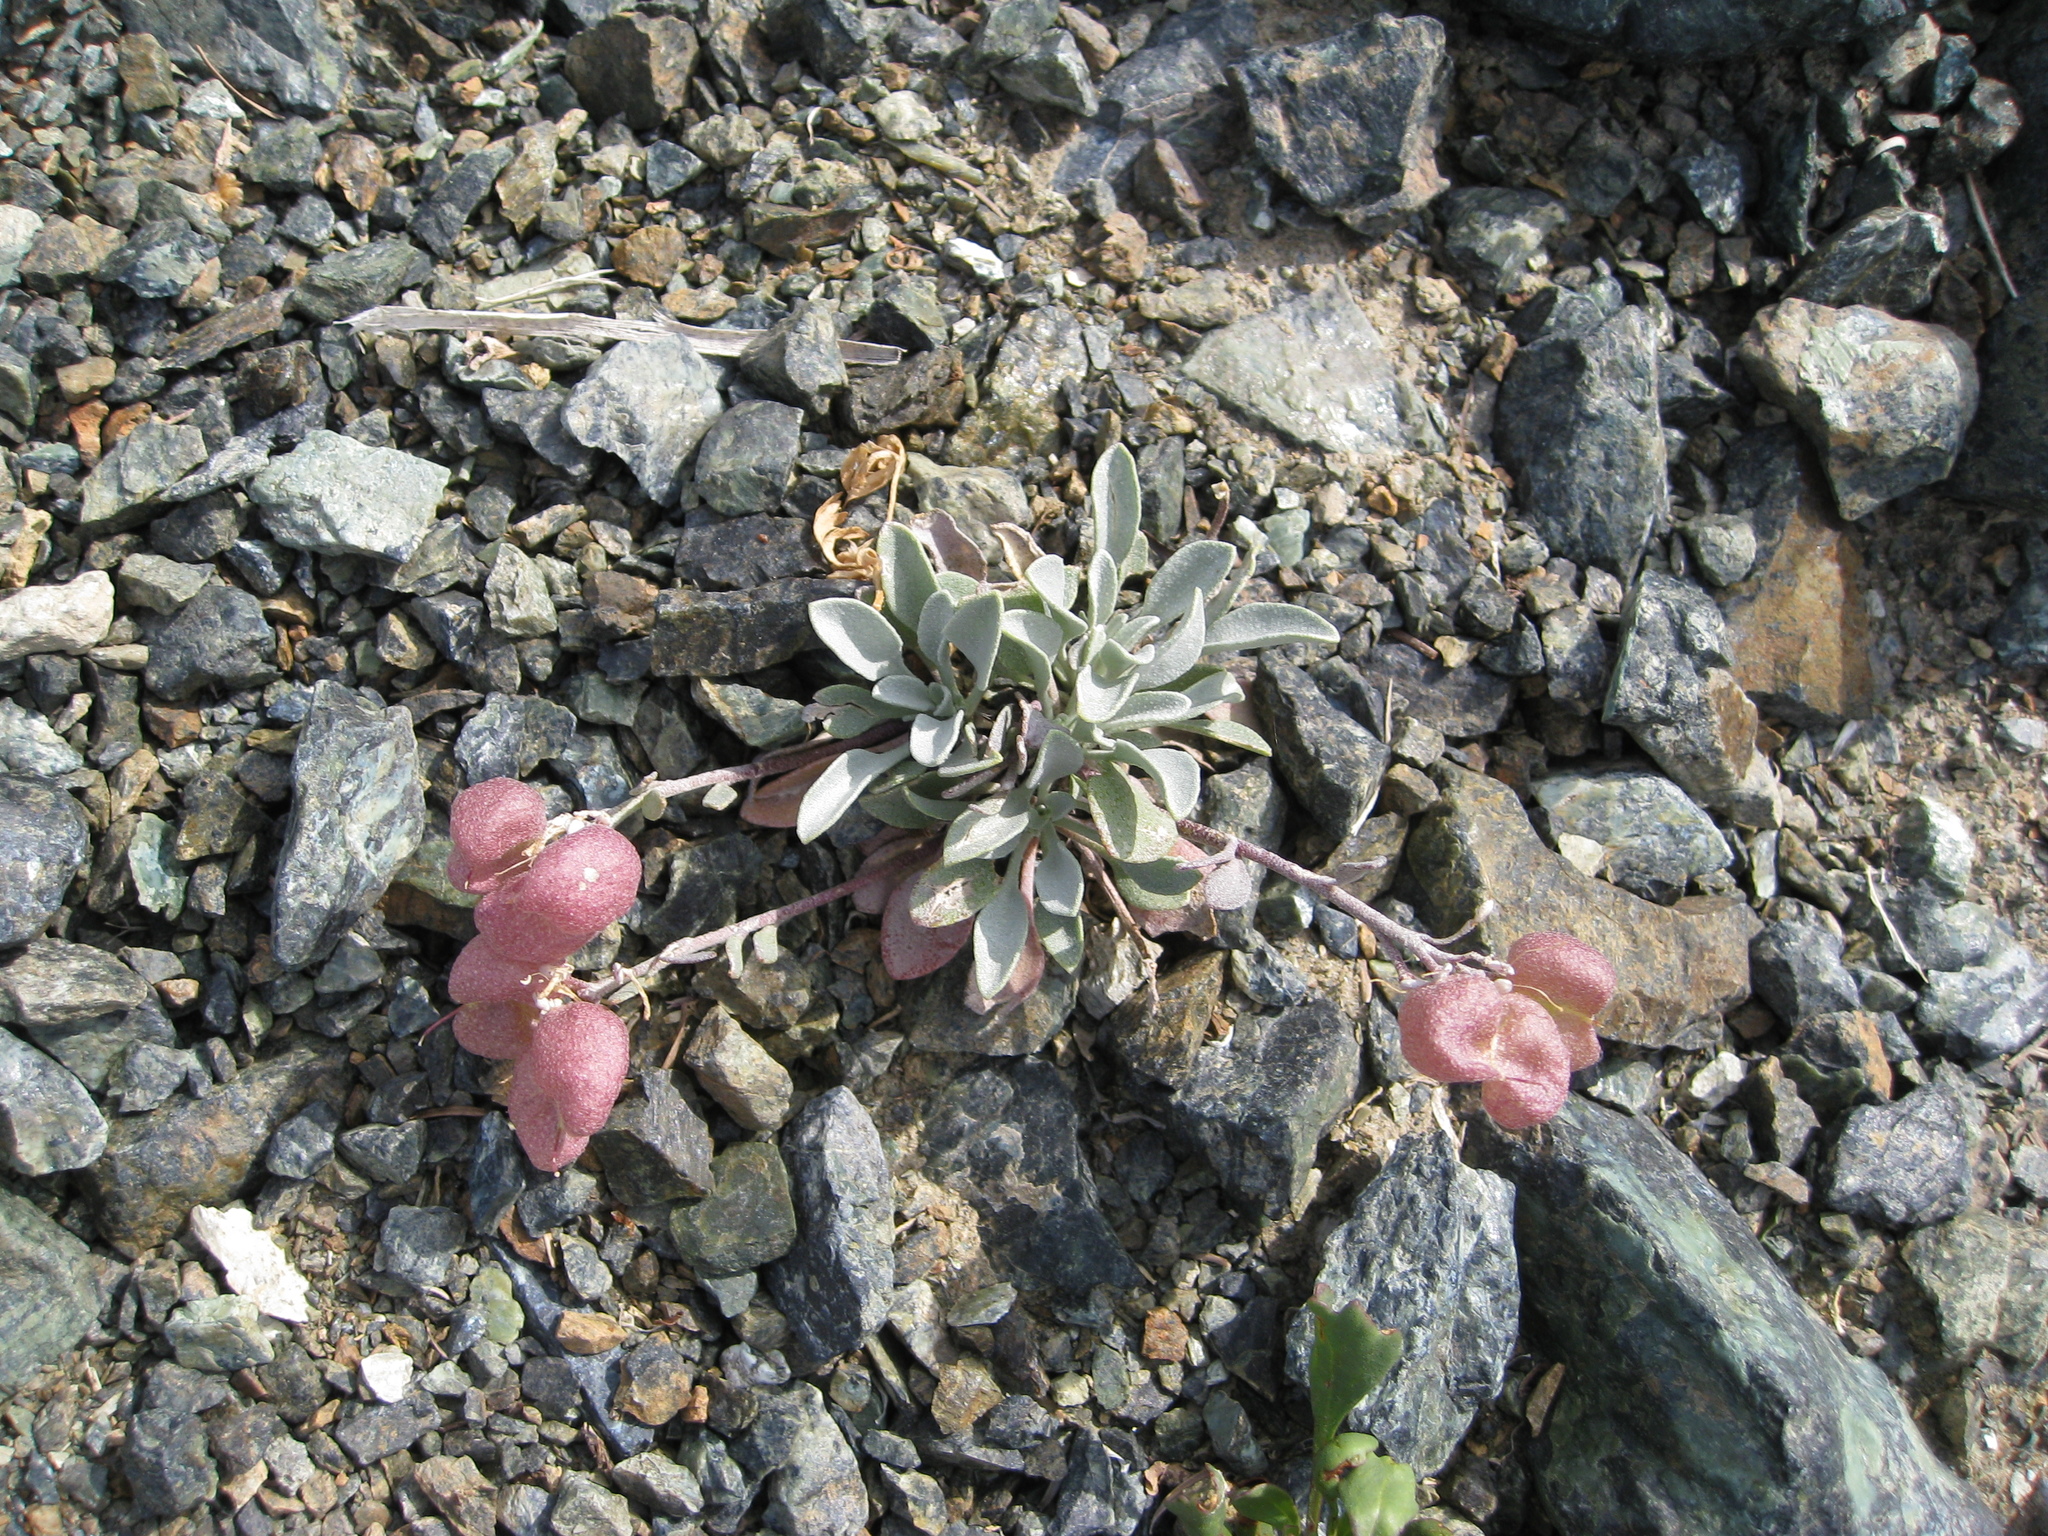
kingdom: Plantae
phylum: Tracheophyta
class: Magnoliopsida
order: Brassicales
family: Brassicaceae
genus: Physaria
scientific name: Physaria alpestris
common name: Washington twinpod
